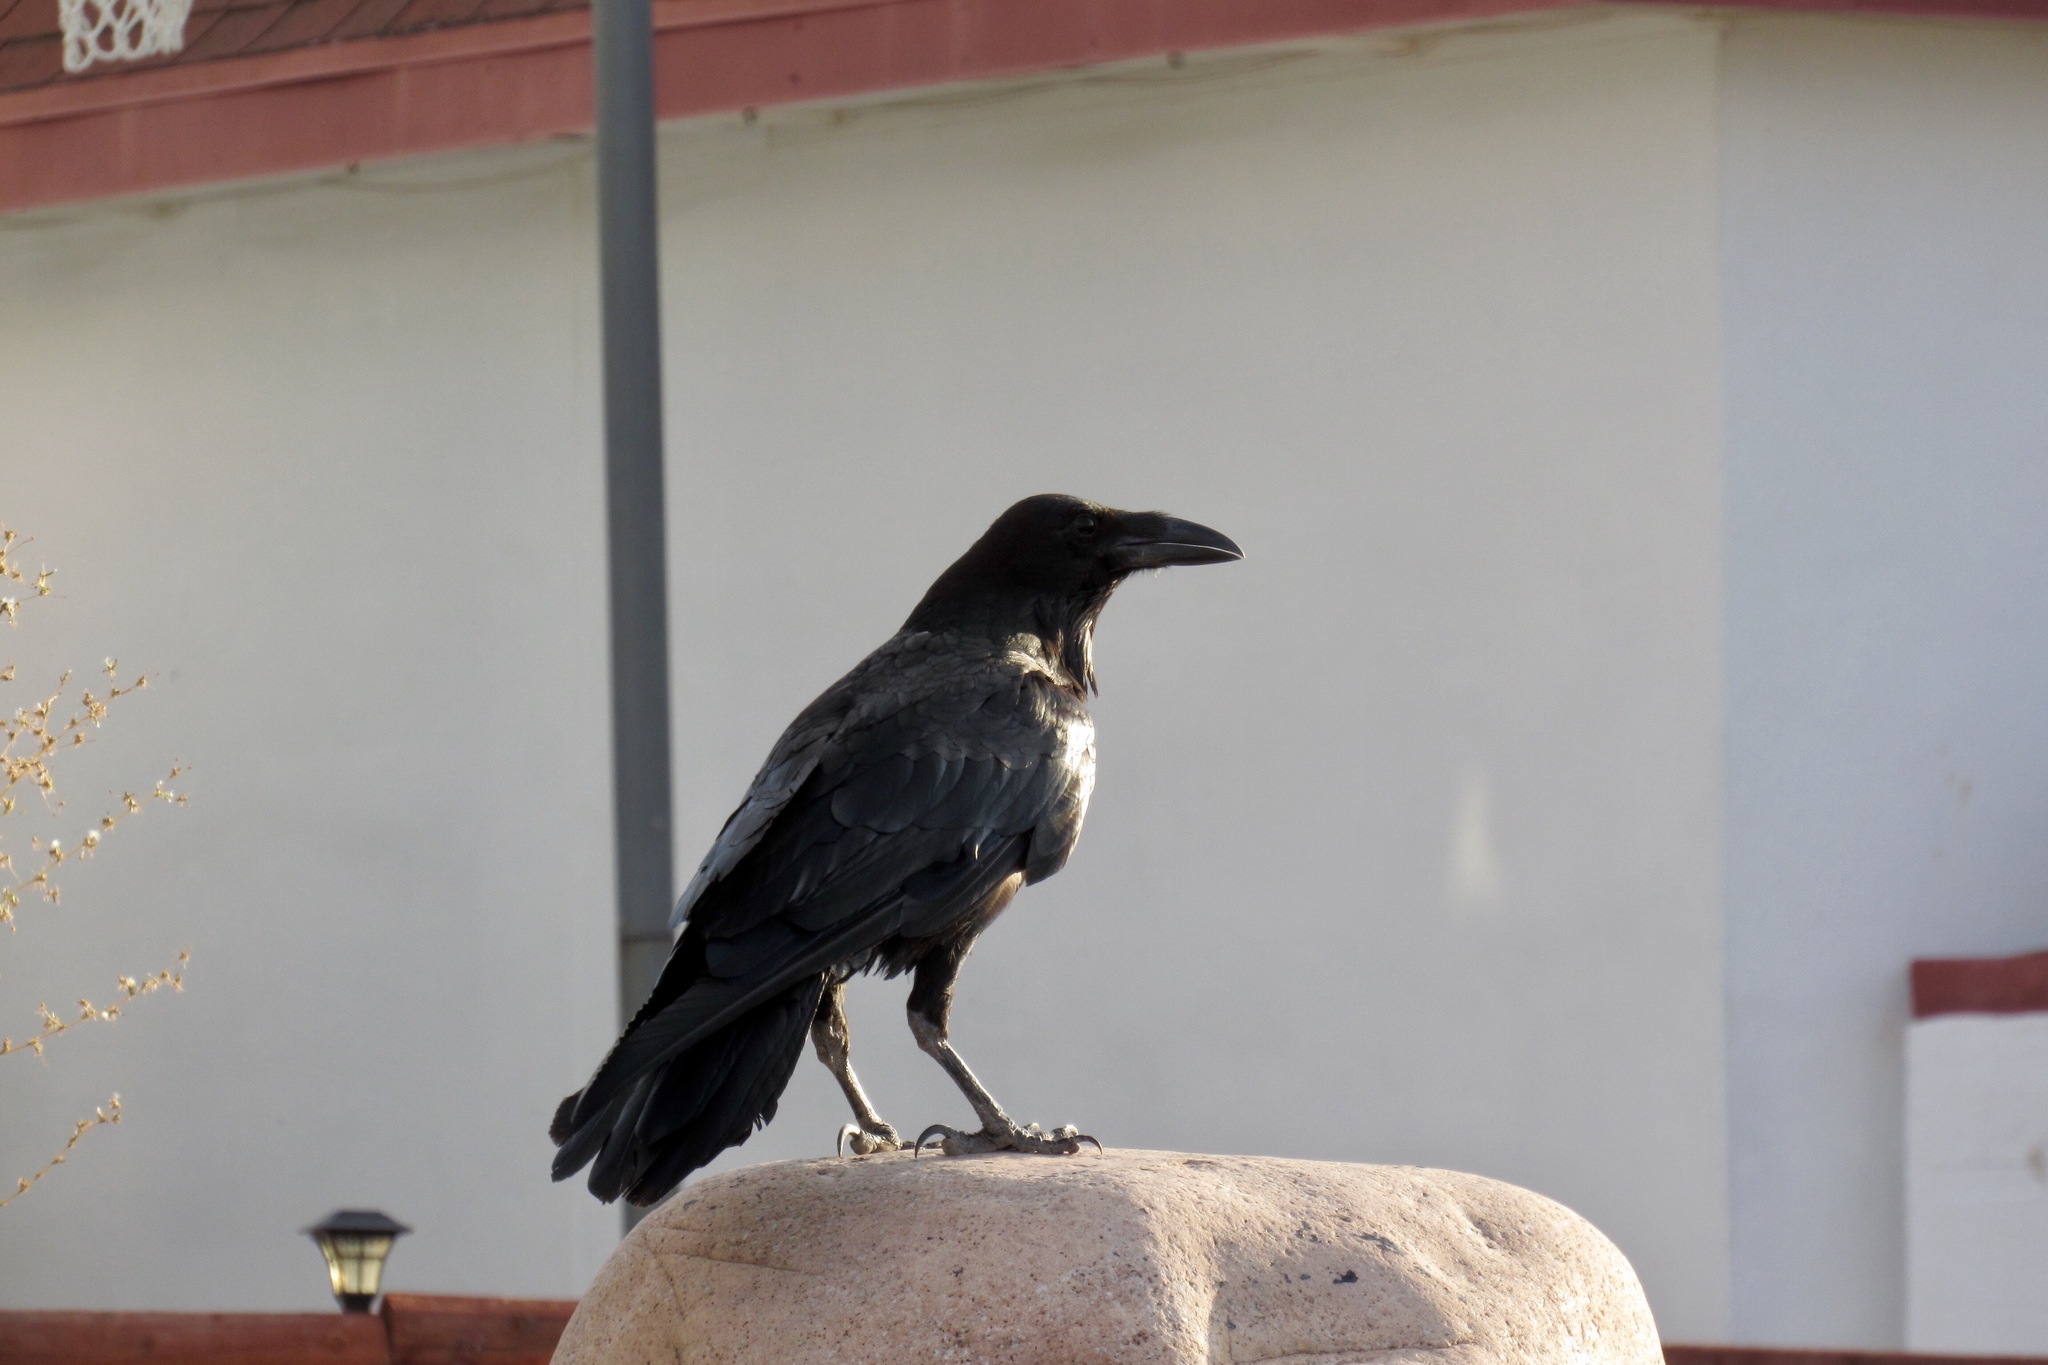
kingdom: Animalia
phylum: Chordata
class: Aves
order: Passeriformes
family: Corvidae
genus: Corvus
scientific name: Corvus corax
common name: Common raven
